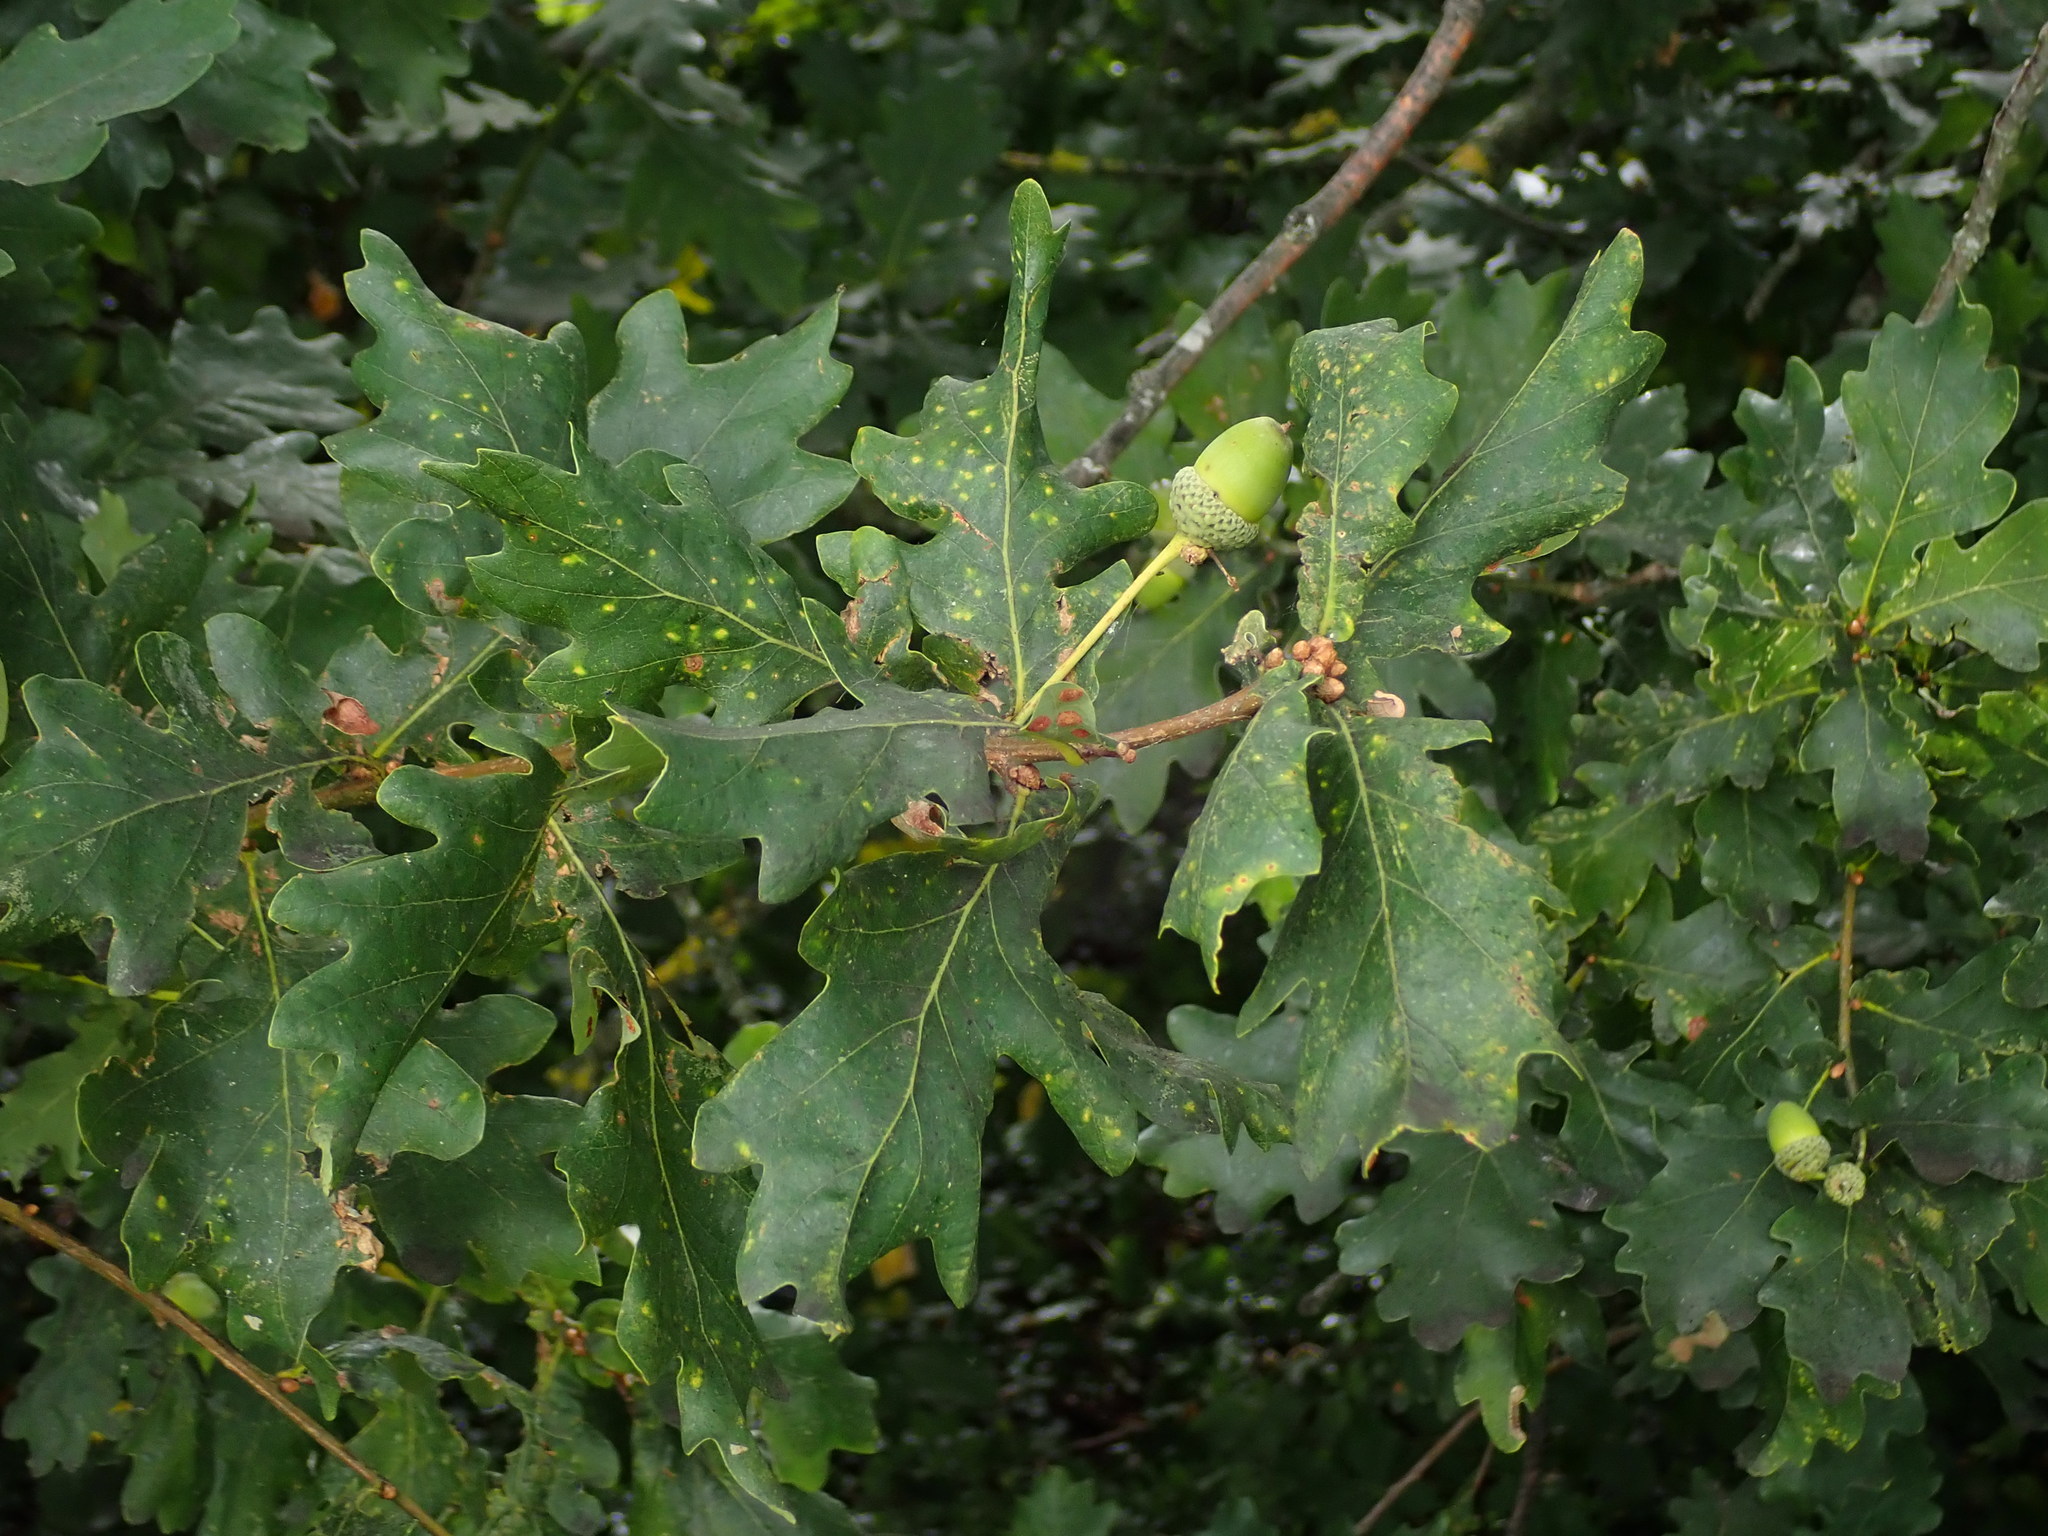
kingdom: Plantae
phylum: Tracheophyta
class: Magnoliopsida
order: Fagales
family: Fagaceae
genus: Quercus
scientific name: Quercus robur
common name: Pedunculate oak
